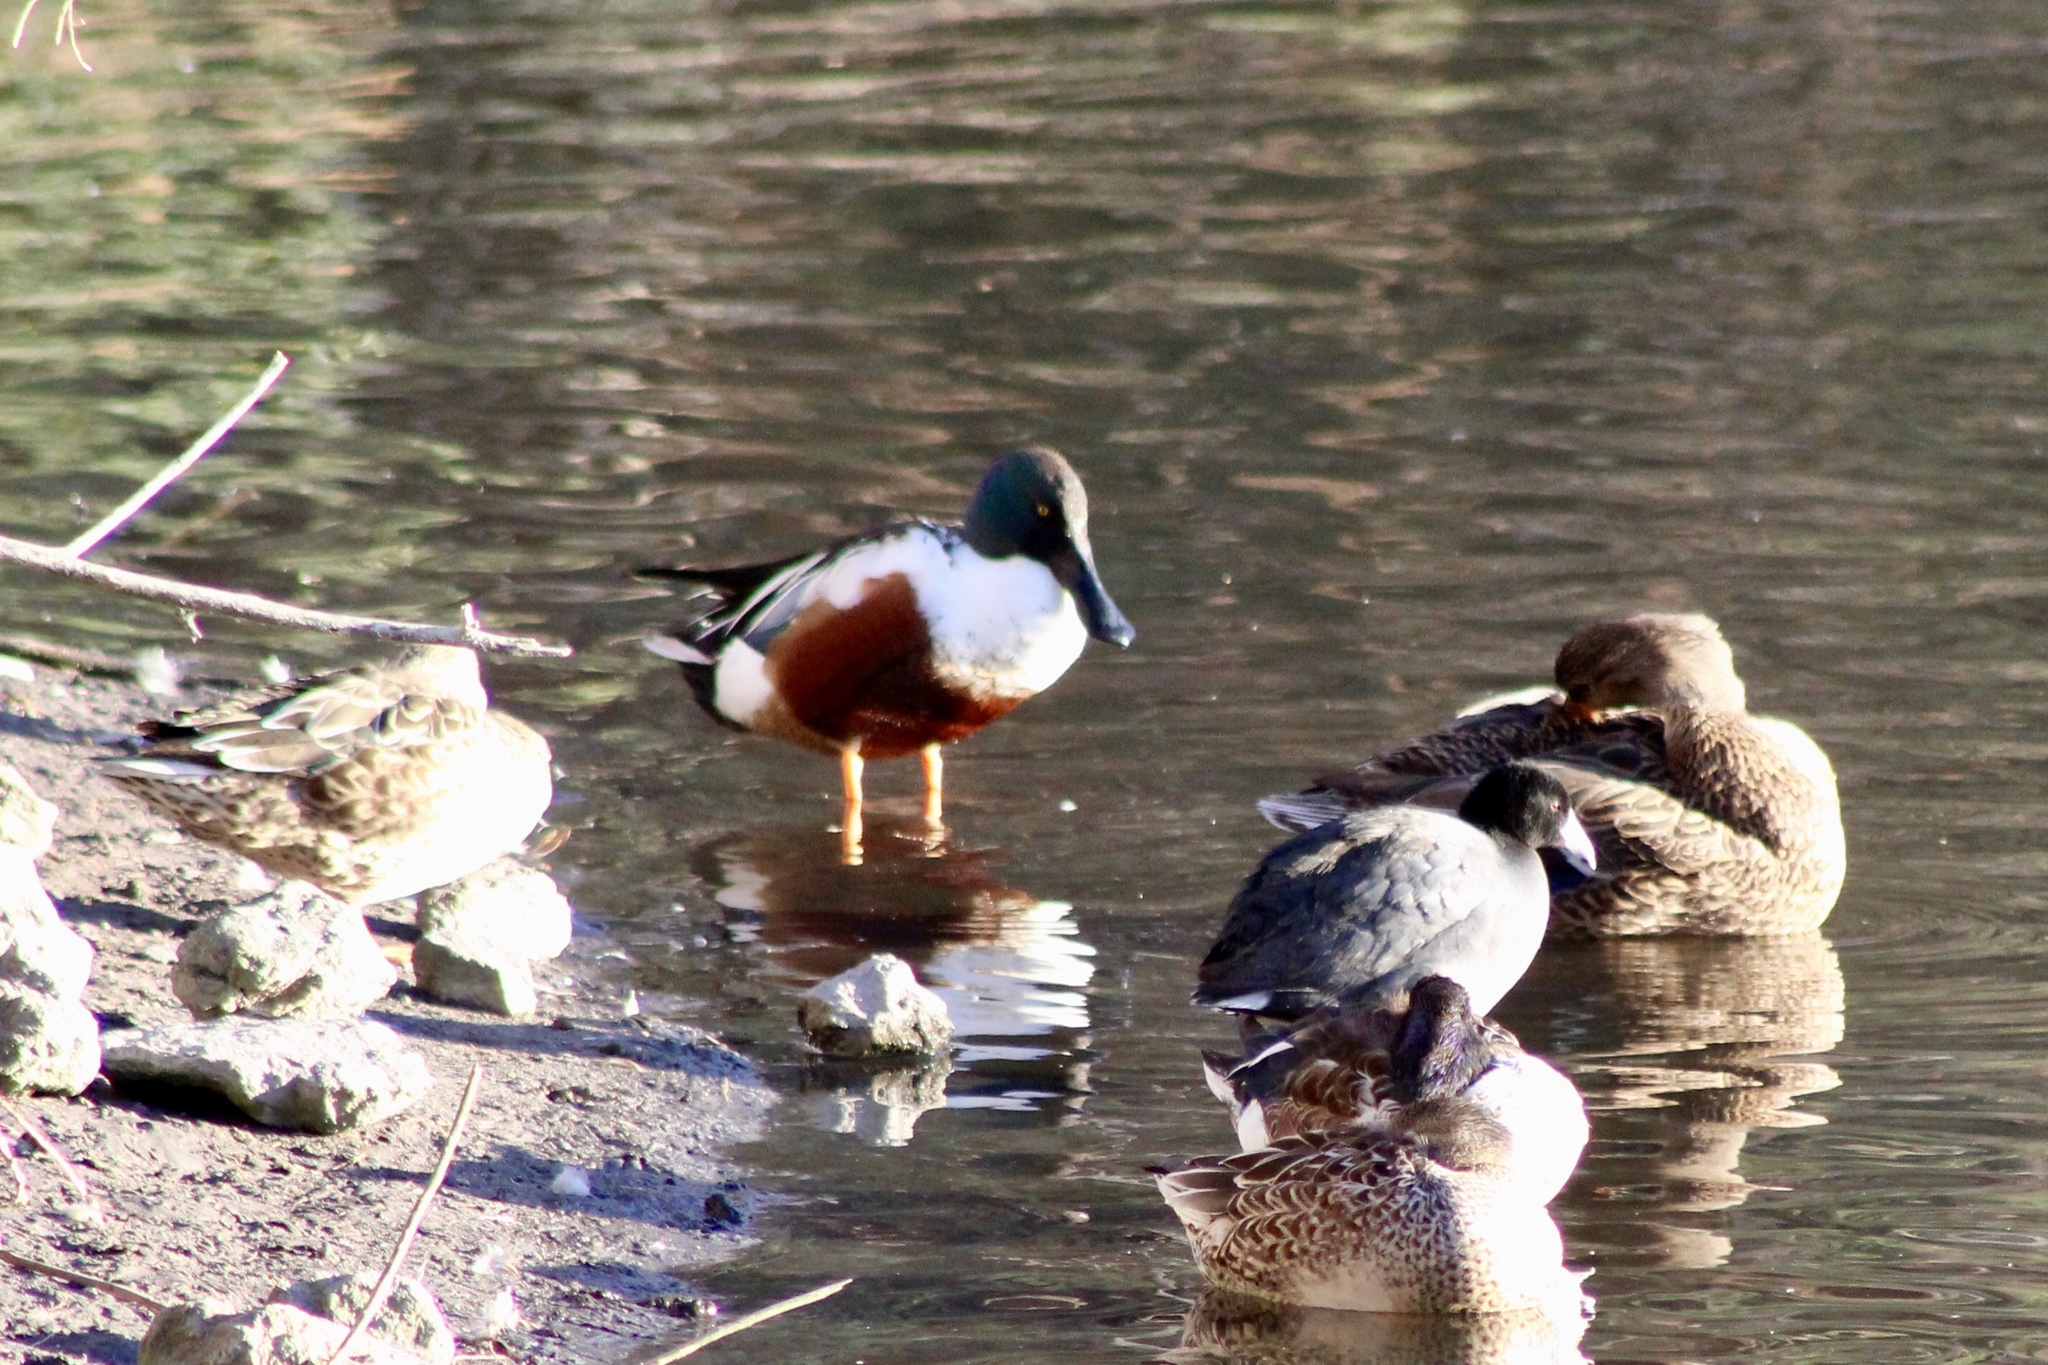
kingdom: Animalia
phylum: Chordata
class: Aves
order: Anseriformes
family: Anatidae
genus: Spatula
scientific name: Spatula clypeata
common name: Northern shoveler
